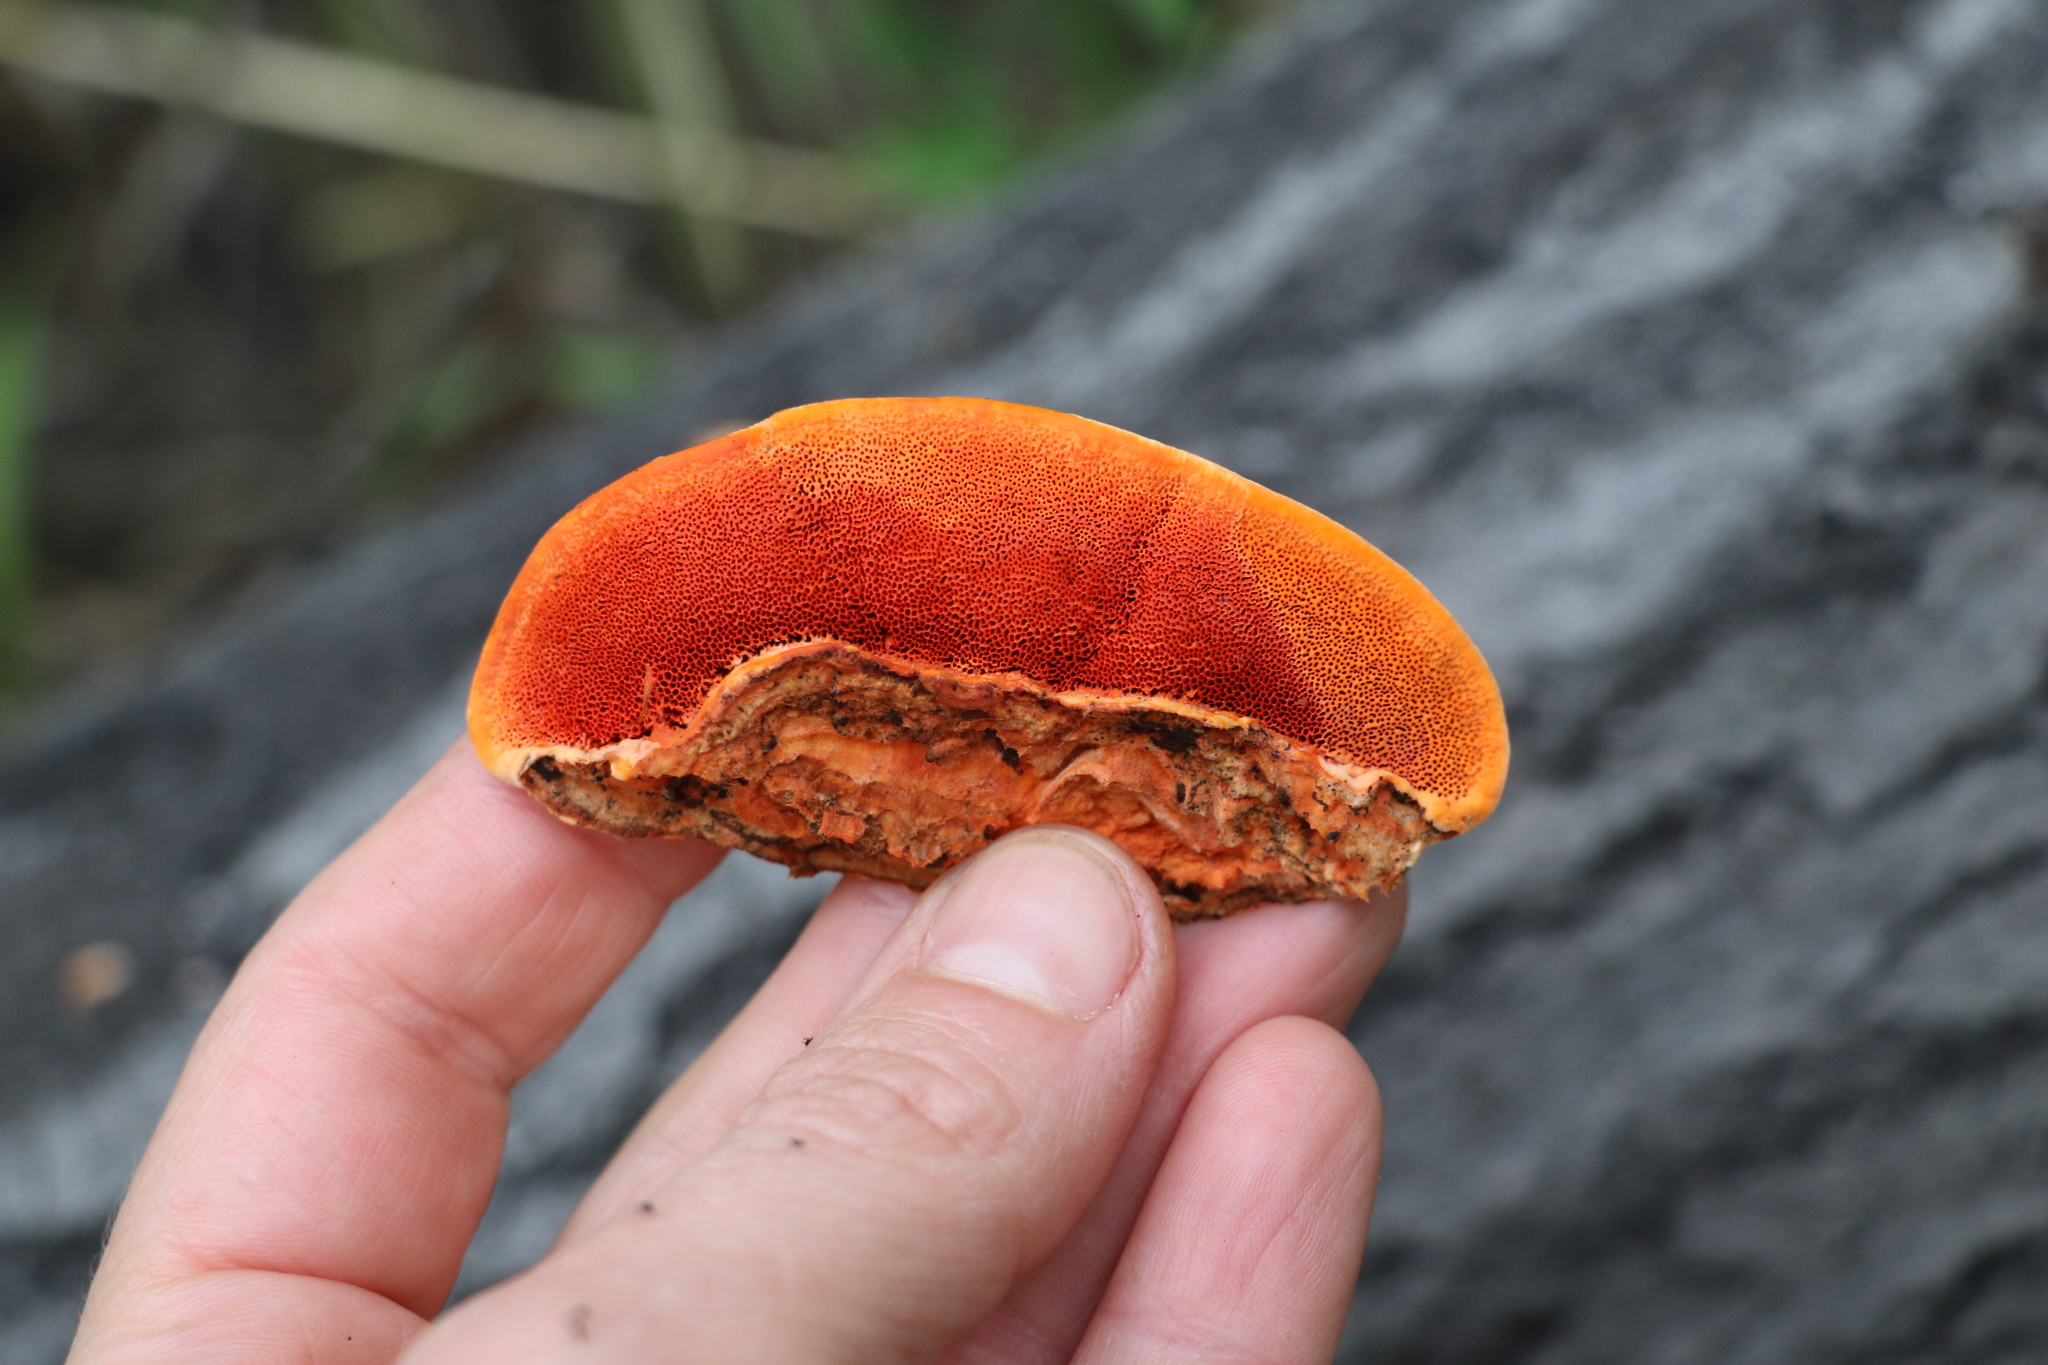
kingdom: Fungi
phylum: Basidiomycota
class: Agaricomycetes
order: Polyporales
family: Polyporaceae
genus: Trametes
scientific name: Trametes cinnabarina
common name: Northern cinnabar polypore
